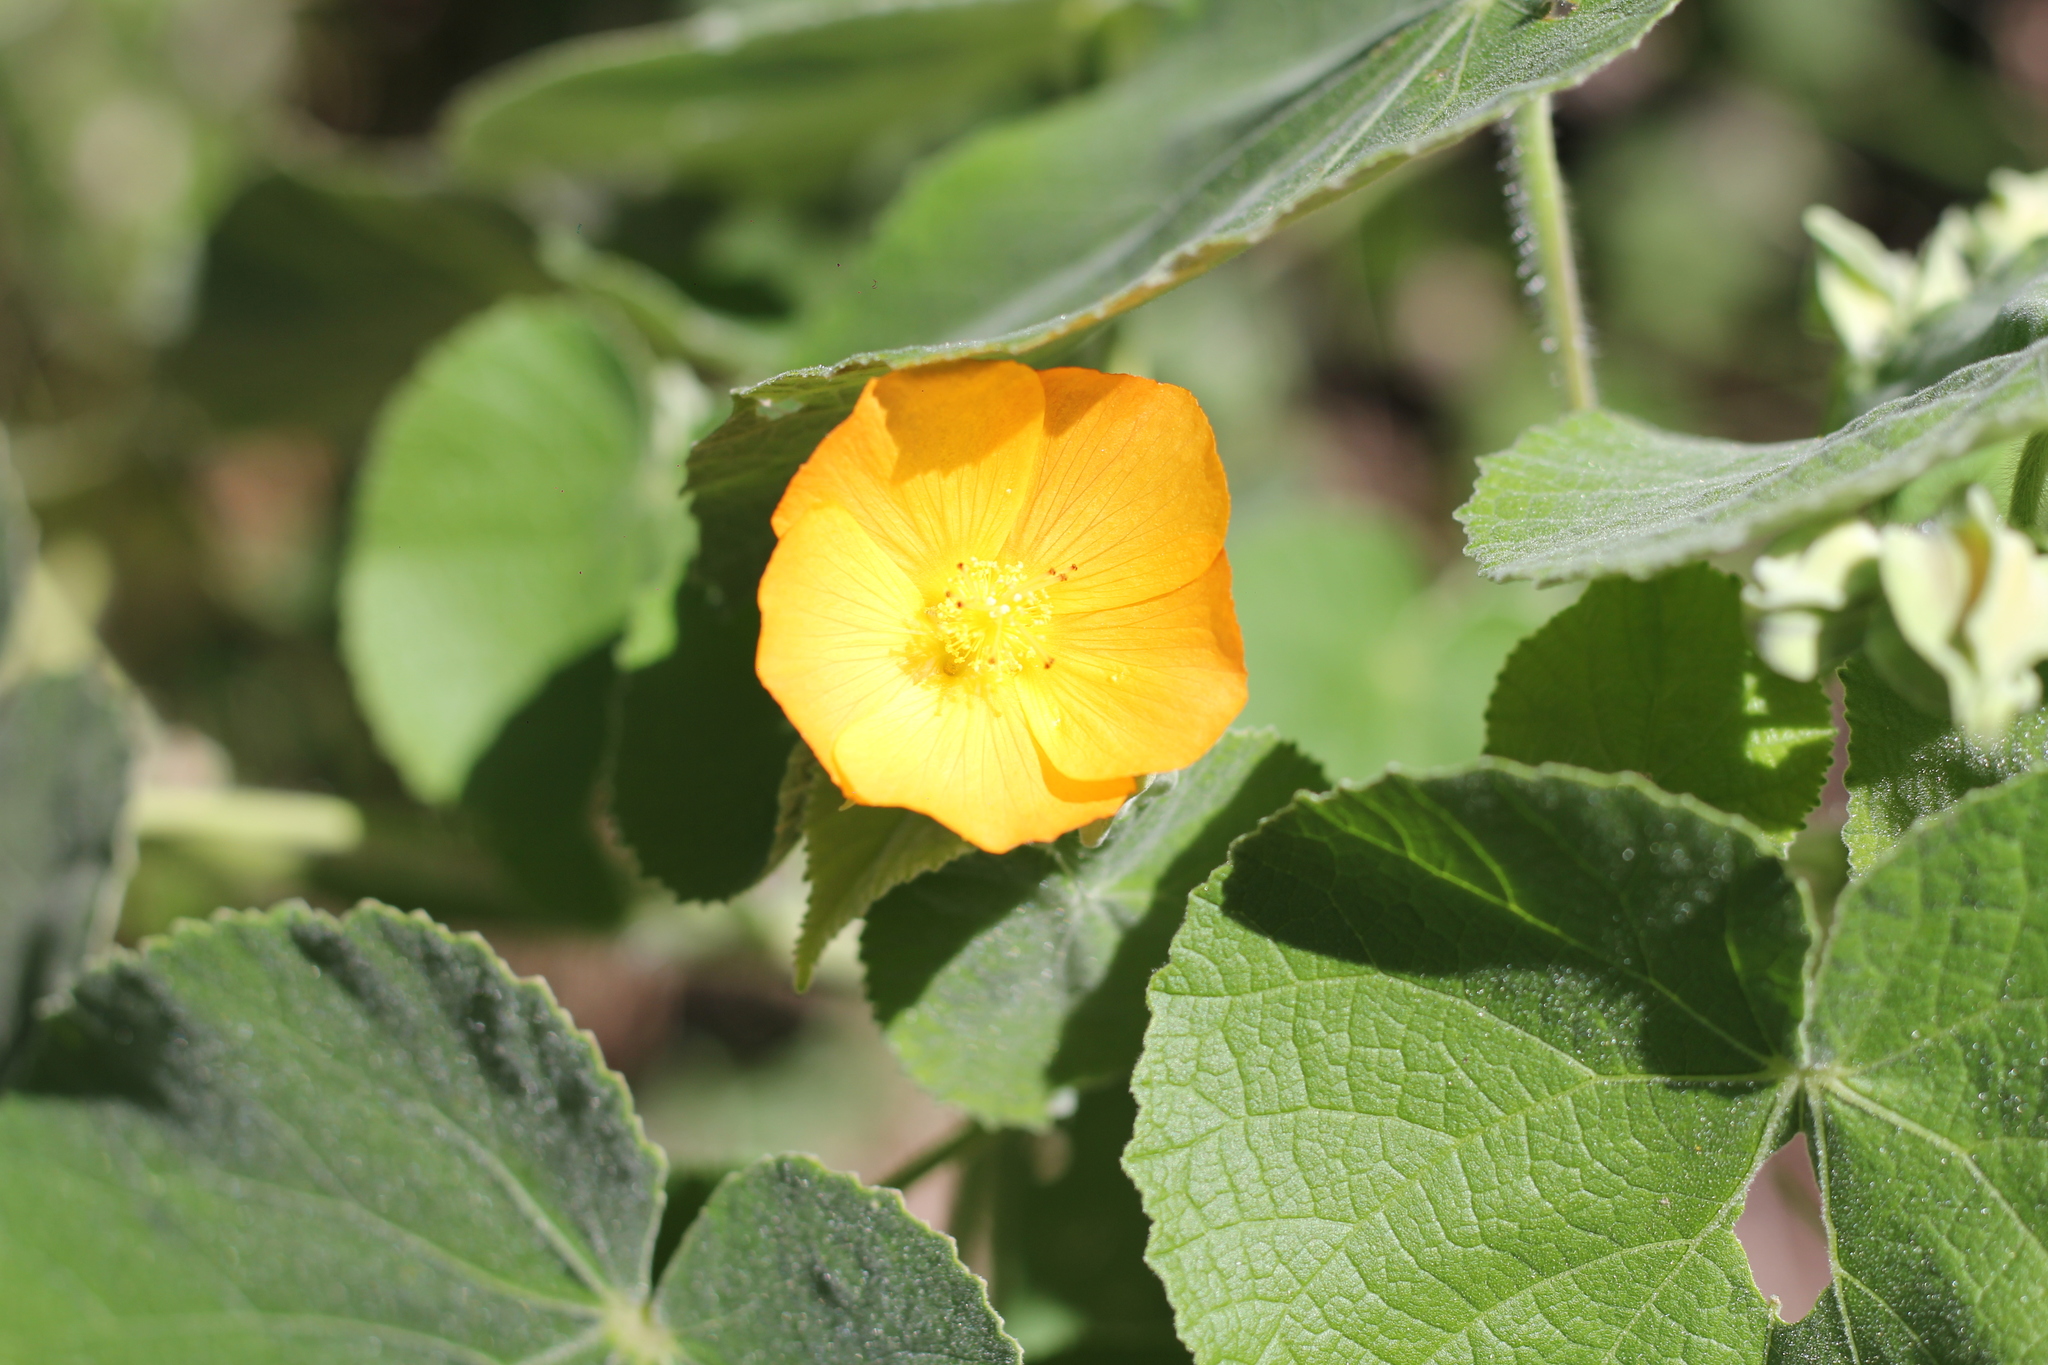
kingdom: Plantae
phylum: Tracheophyta
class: Magnoliopsida
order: Malvales
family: Malvaceae
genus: Abutilon
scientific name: Abutilon grandifolium
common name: Hairy abutilon
